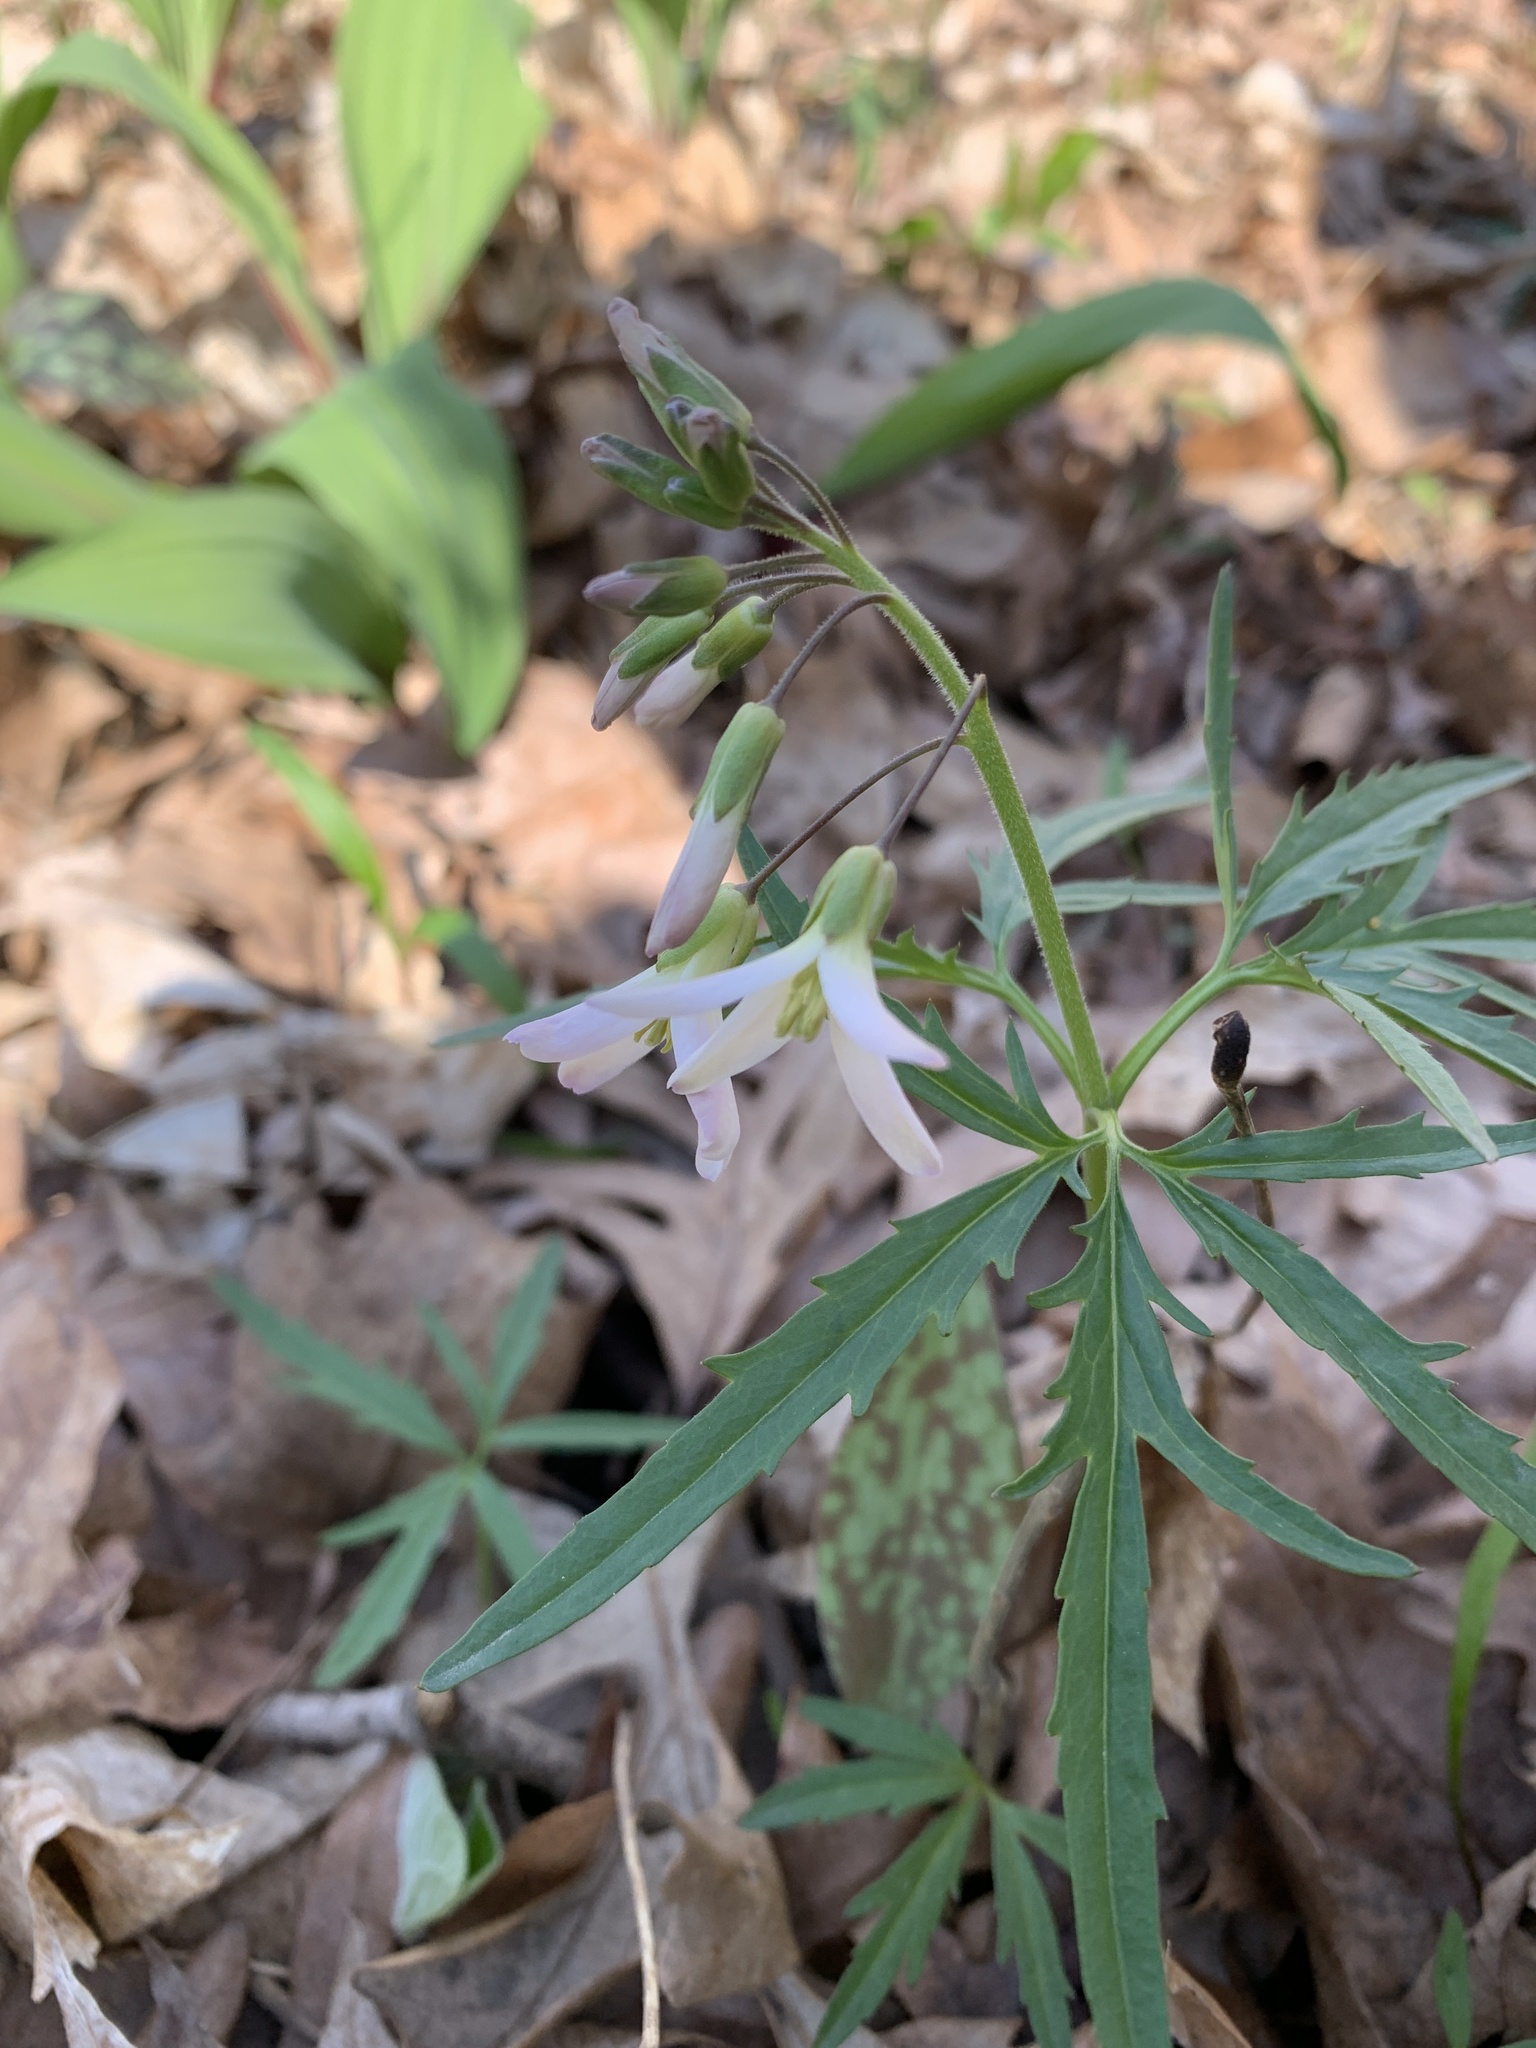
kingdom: Plantae
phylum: Tracheophyta
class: Magnoliopsida
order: Brassicales
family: Brassicaceae
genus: Cardamine
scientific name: Cardamine concatenata
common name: Cut-leaf toothcup
